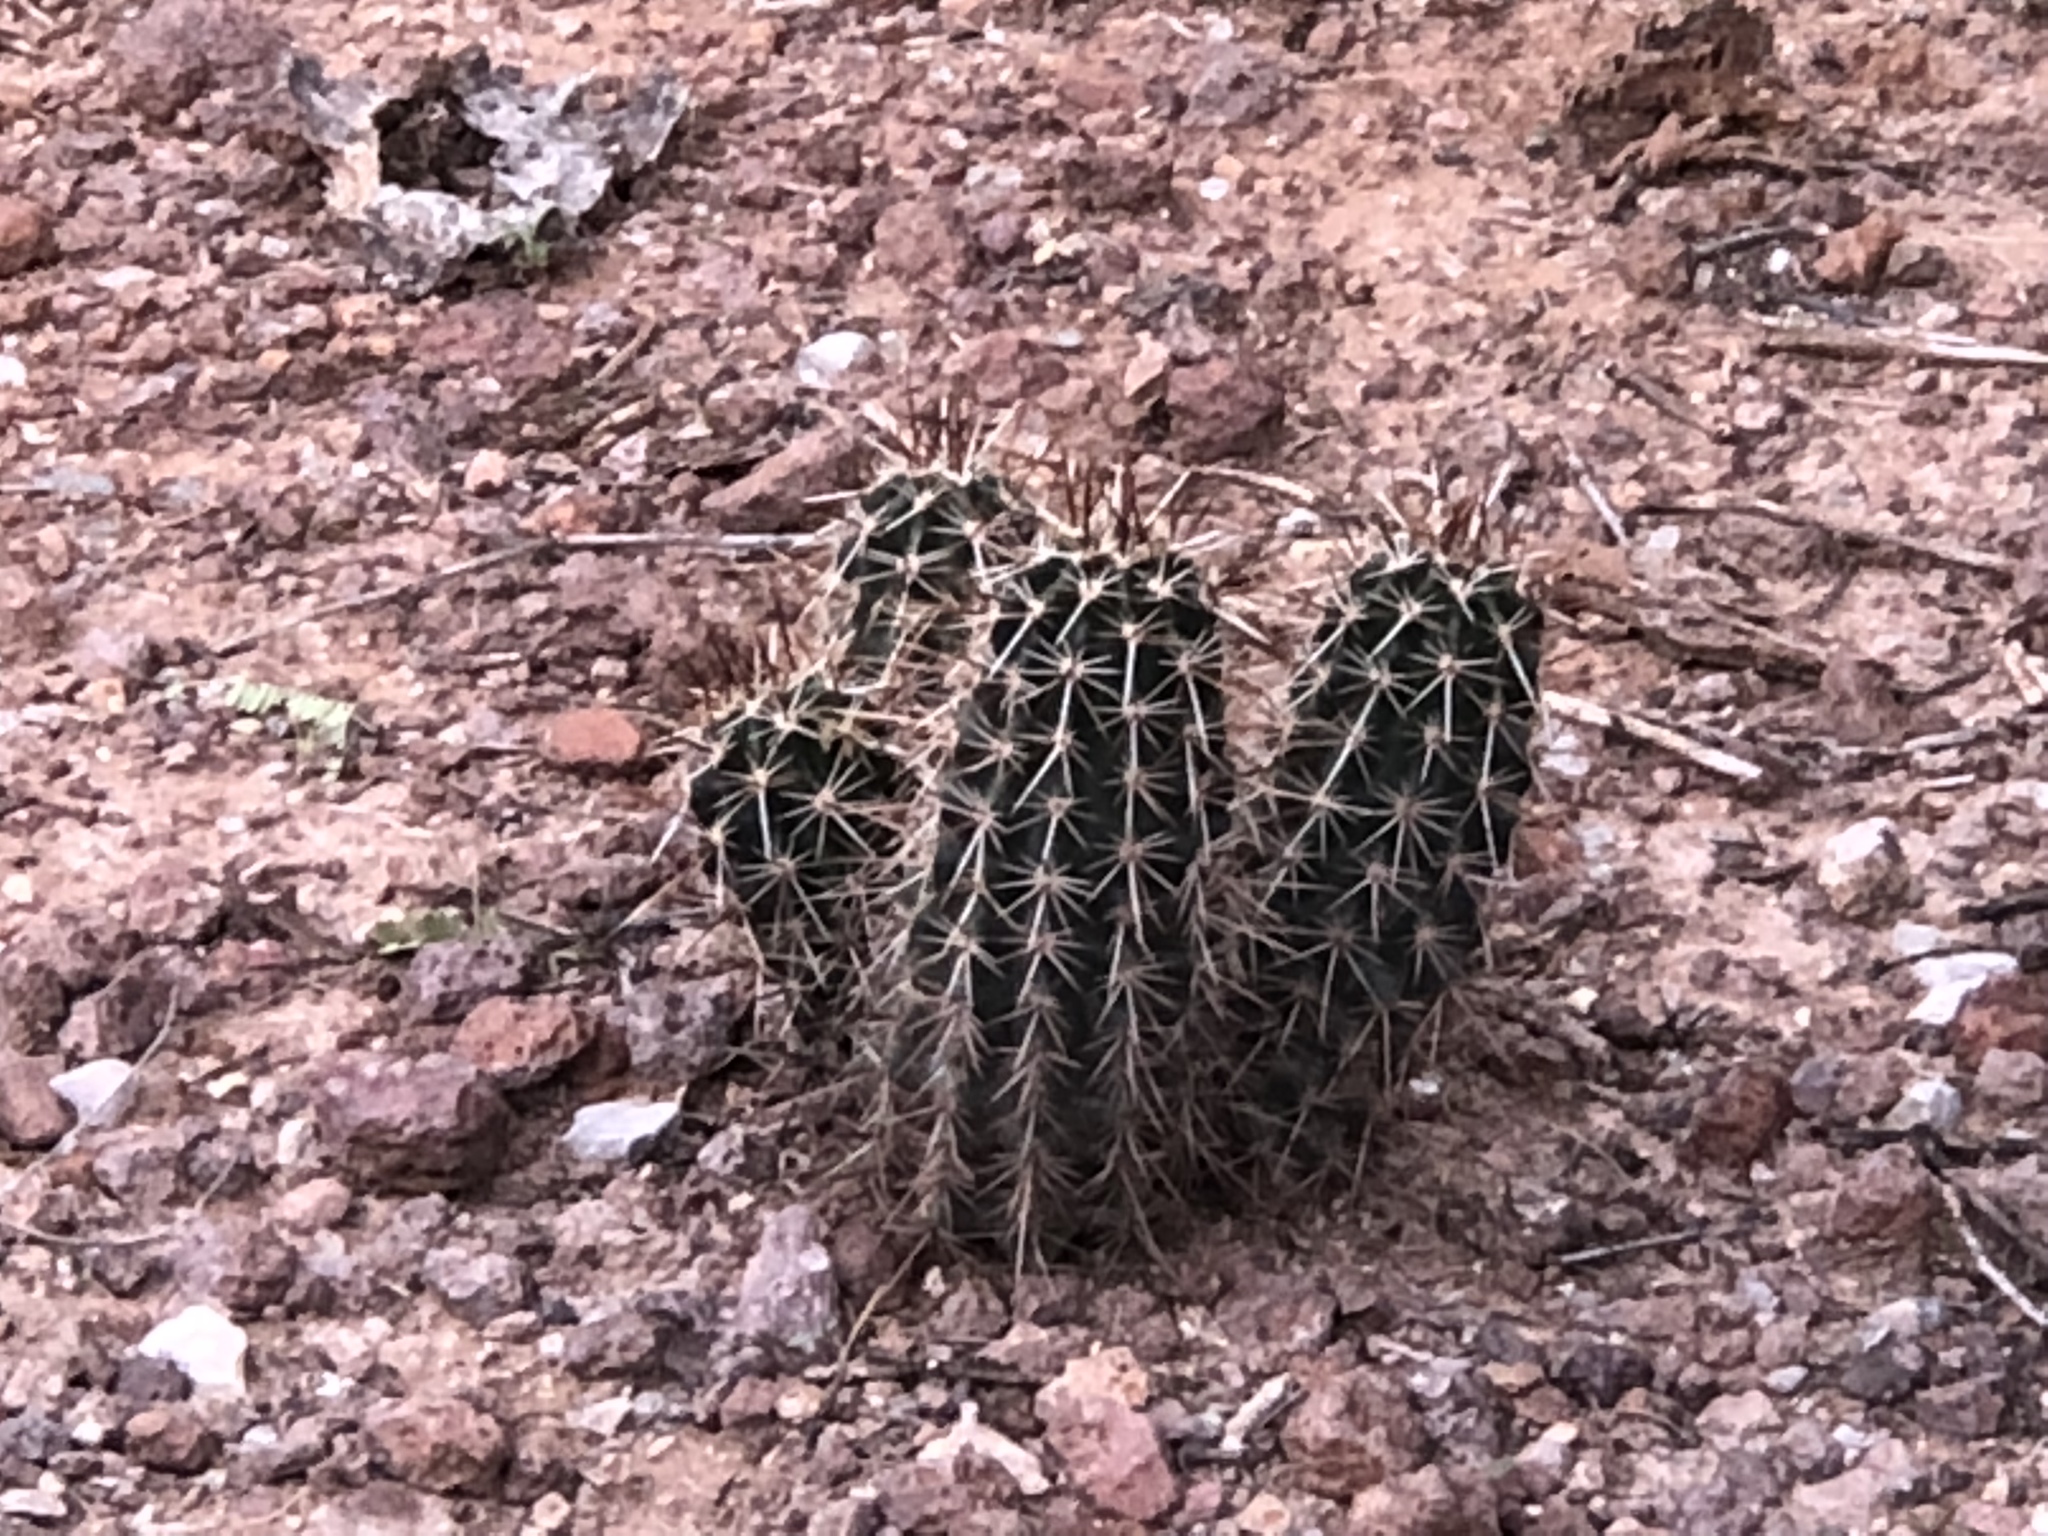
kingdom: Plantae
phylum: Tracheophyta
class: Magnoliopsida
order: Caryophyllales
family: Cactaceae
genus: Echinocereus
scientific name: Echinocereus fasciculatus
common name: Bundle hedgehog
